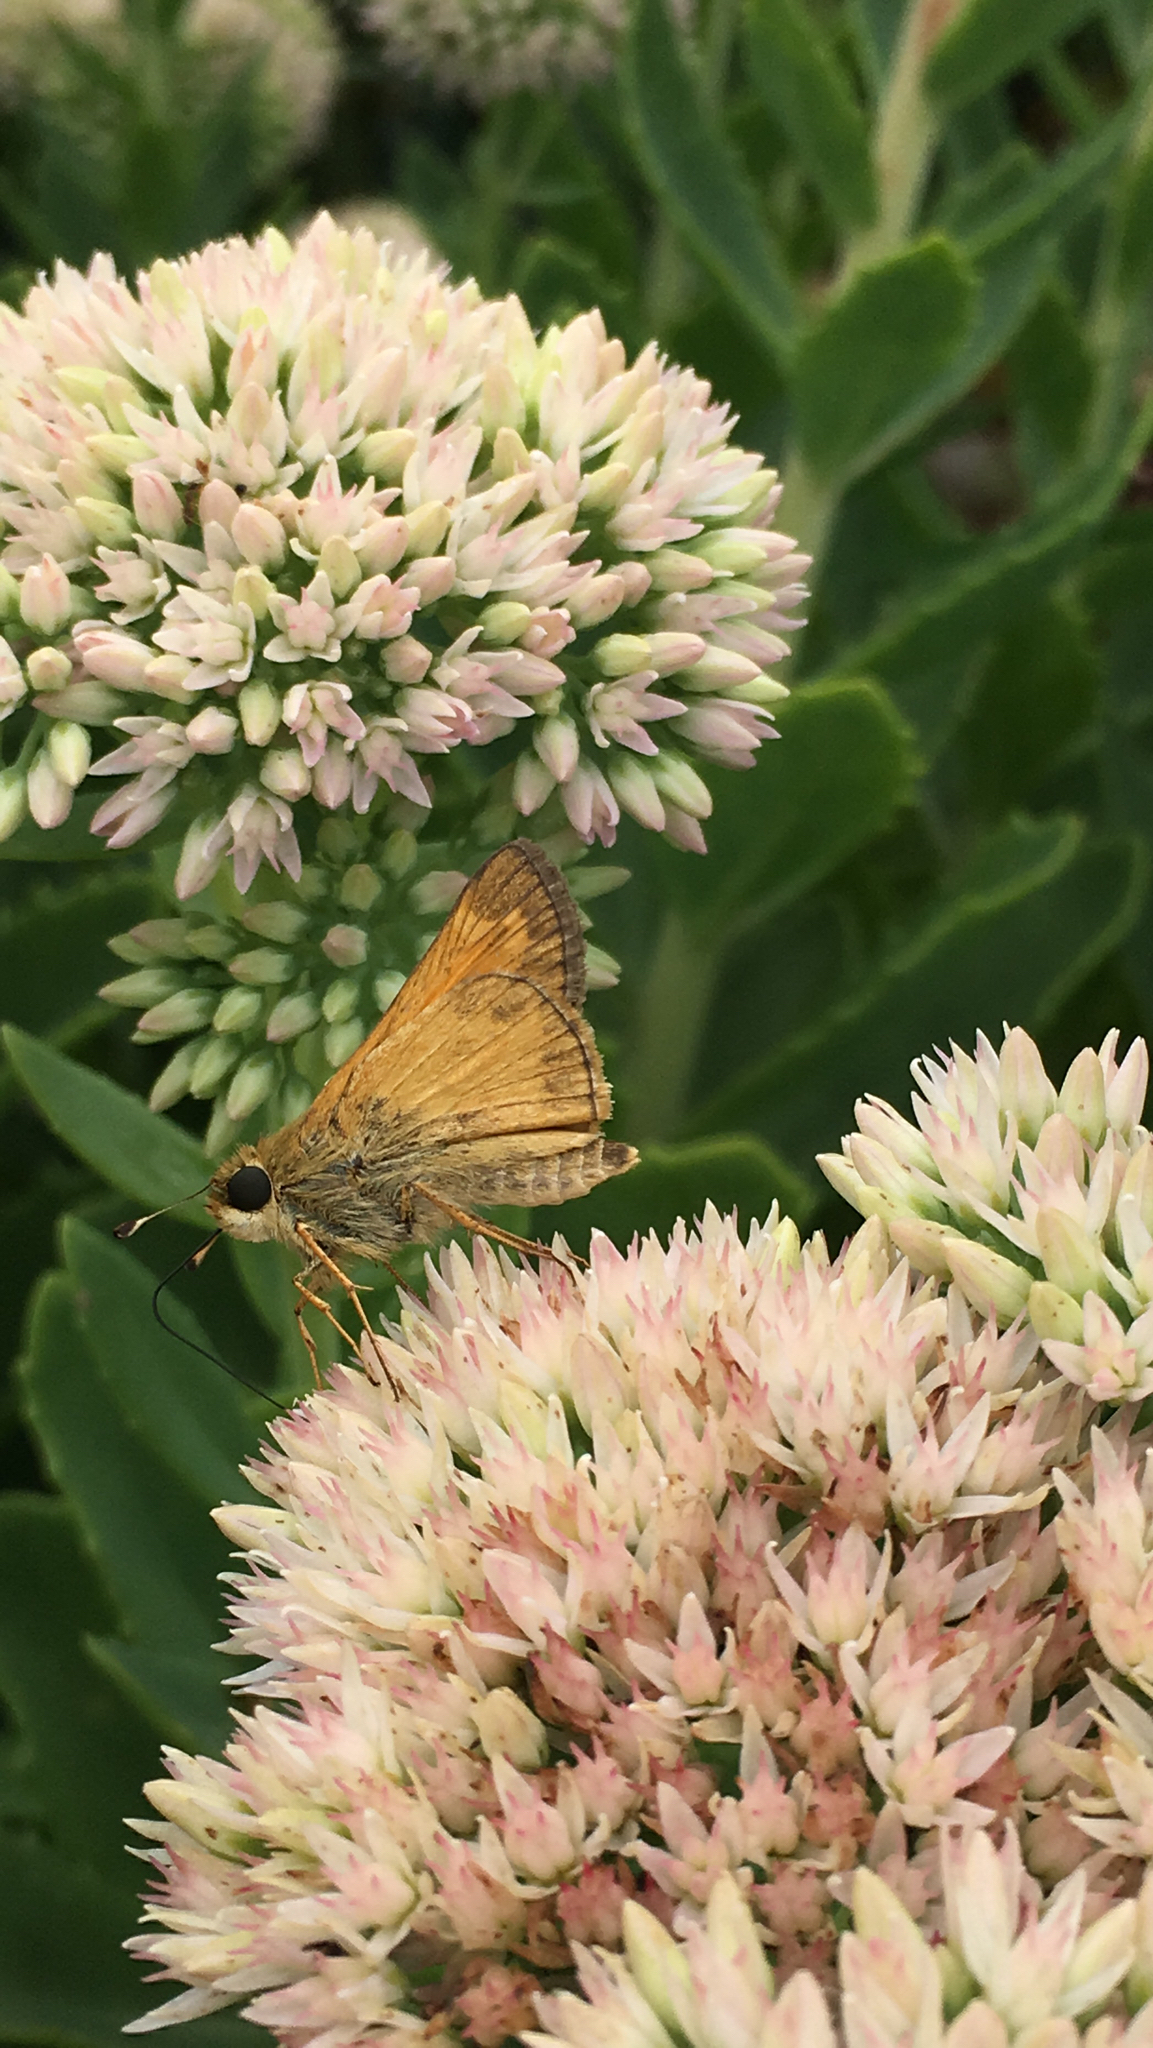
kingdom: Animalia
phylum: Arthropoda
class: Insecta
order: Lepidoptera
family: Hesperiidae
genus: Atalopedes
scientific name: Atalopedes
